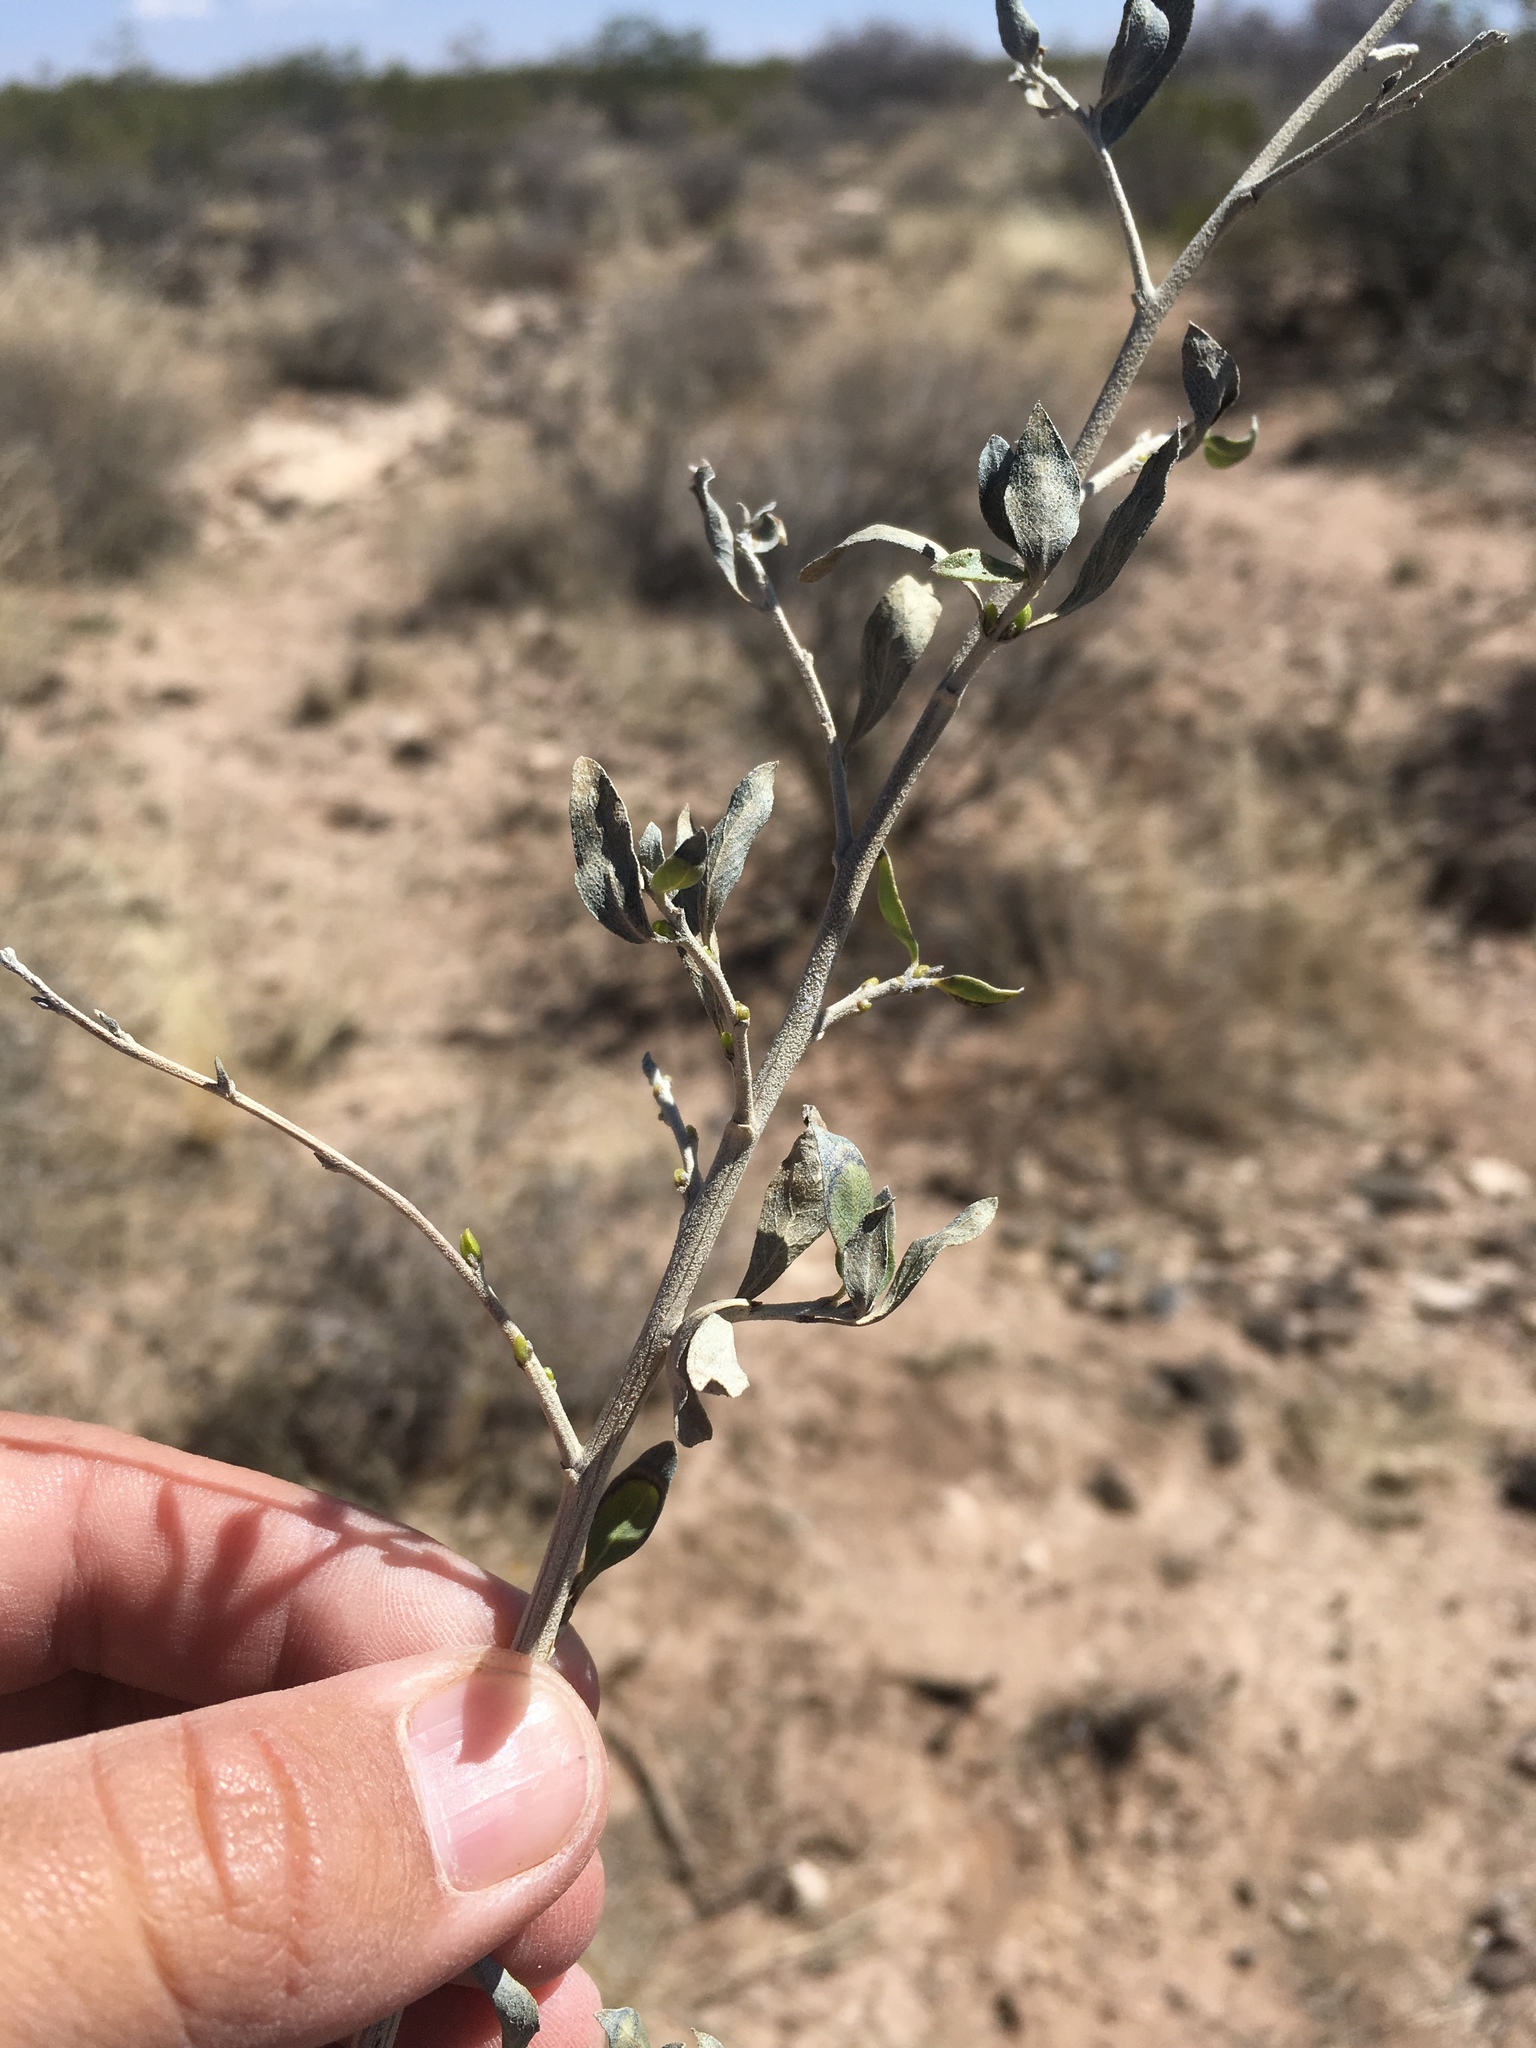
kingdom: Plantae
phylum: Tracheophyta
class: Magnoliopsida
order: Asterales
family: Asteraceae
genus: Flourensia
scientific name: Flourensia cernua
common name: Varnishbush
